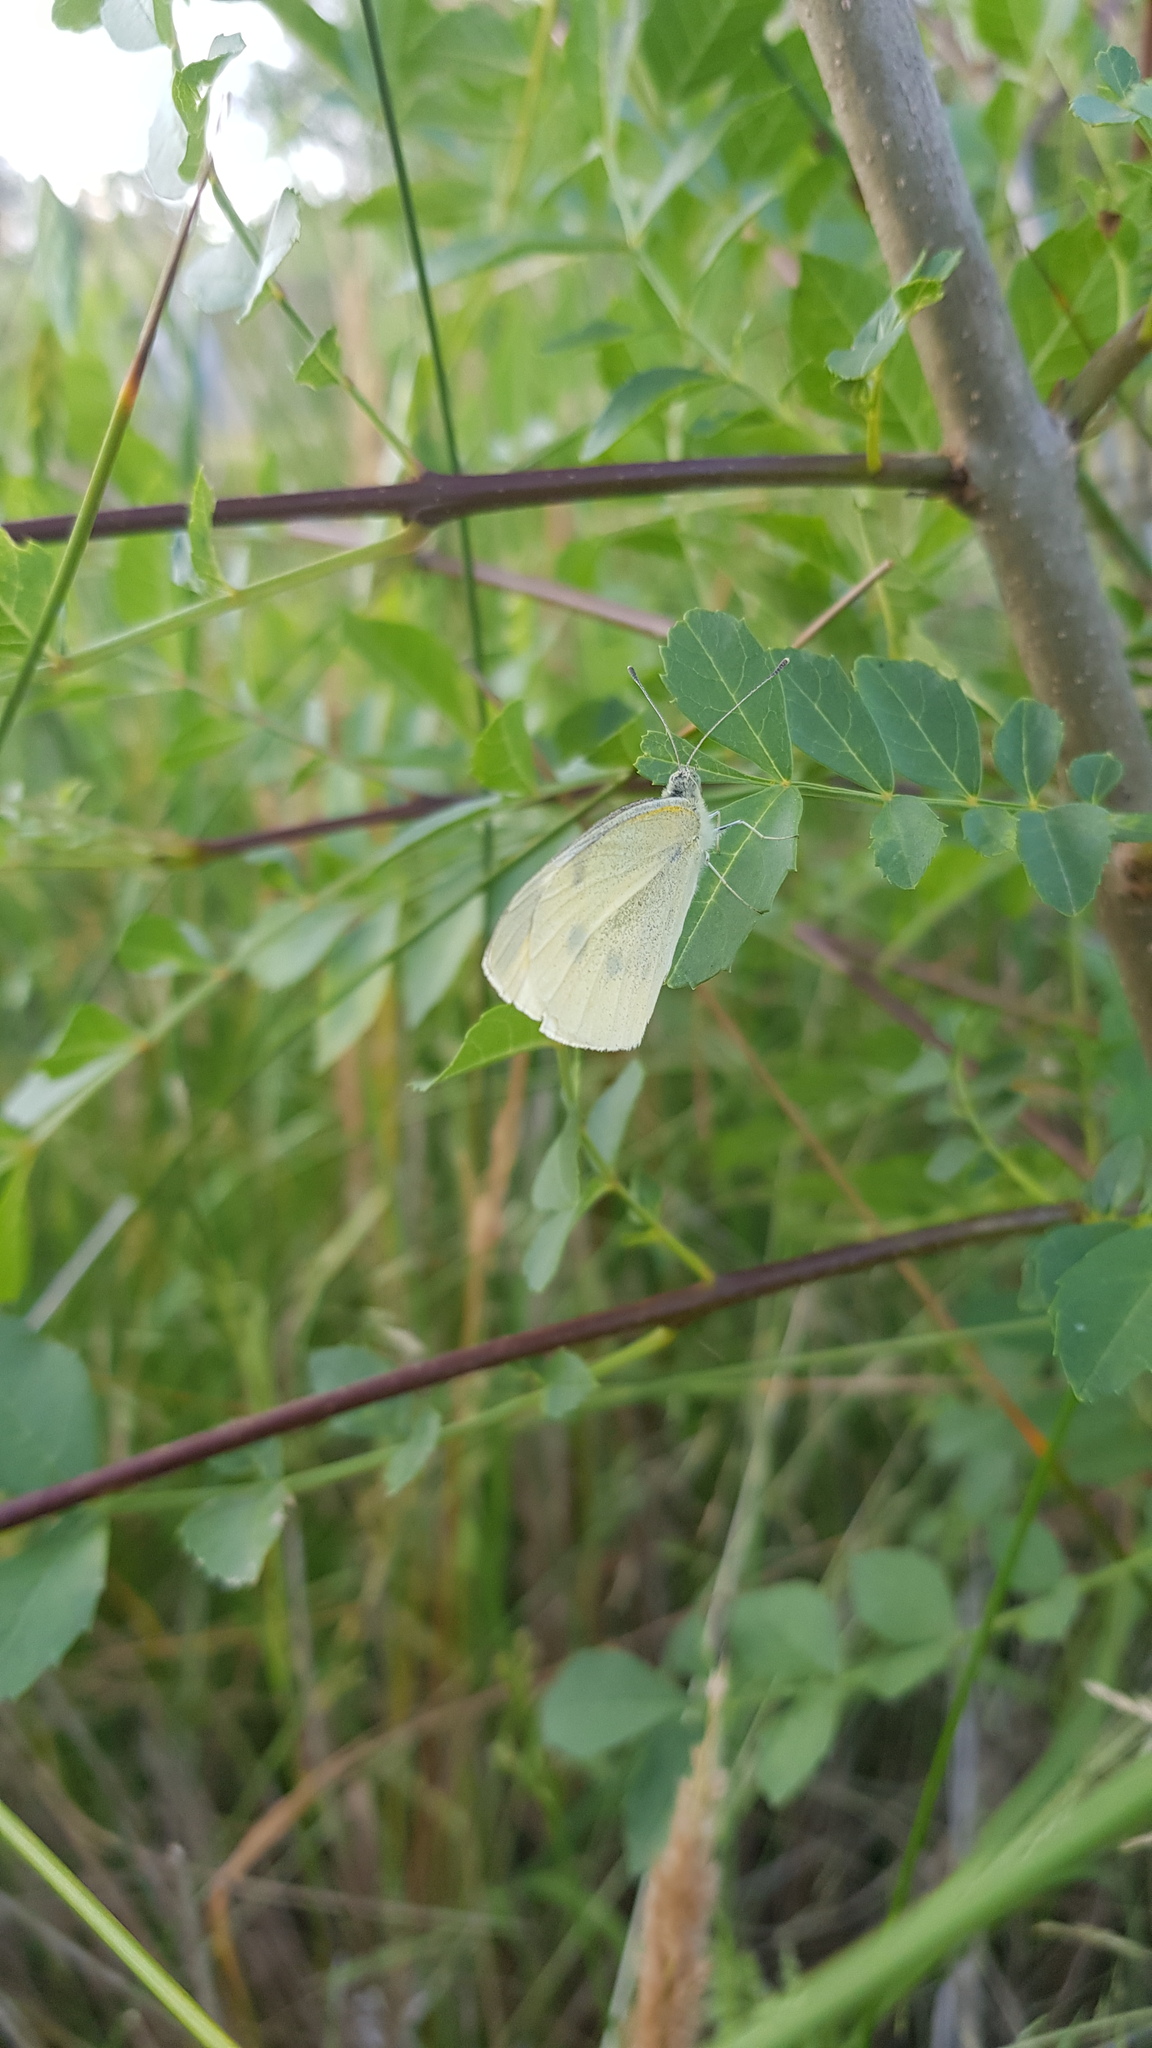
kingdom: Animalia
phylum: Arthropoda
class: Insecta
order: Lepidoptera
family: Pieridae
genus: Pieris
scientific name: Pieris rapae
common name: Small white
